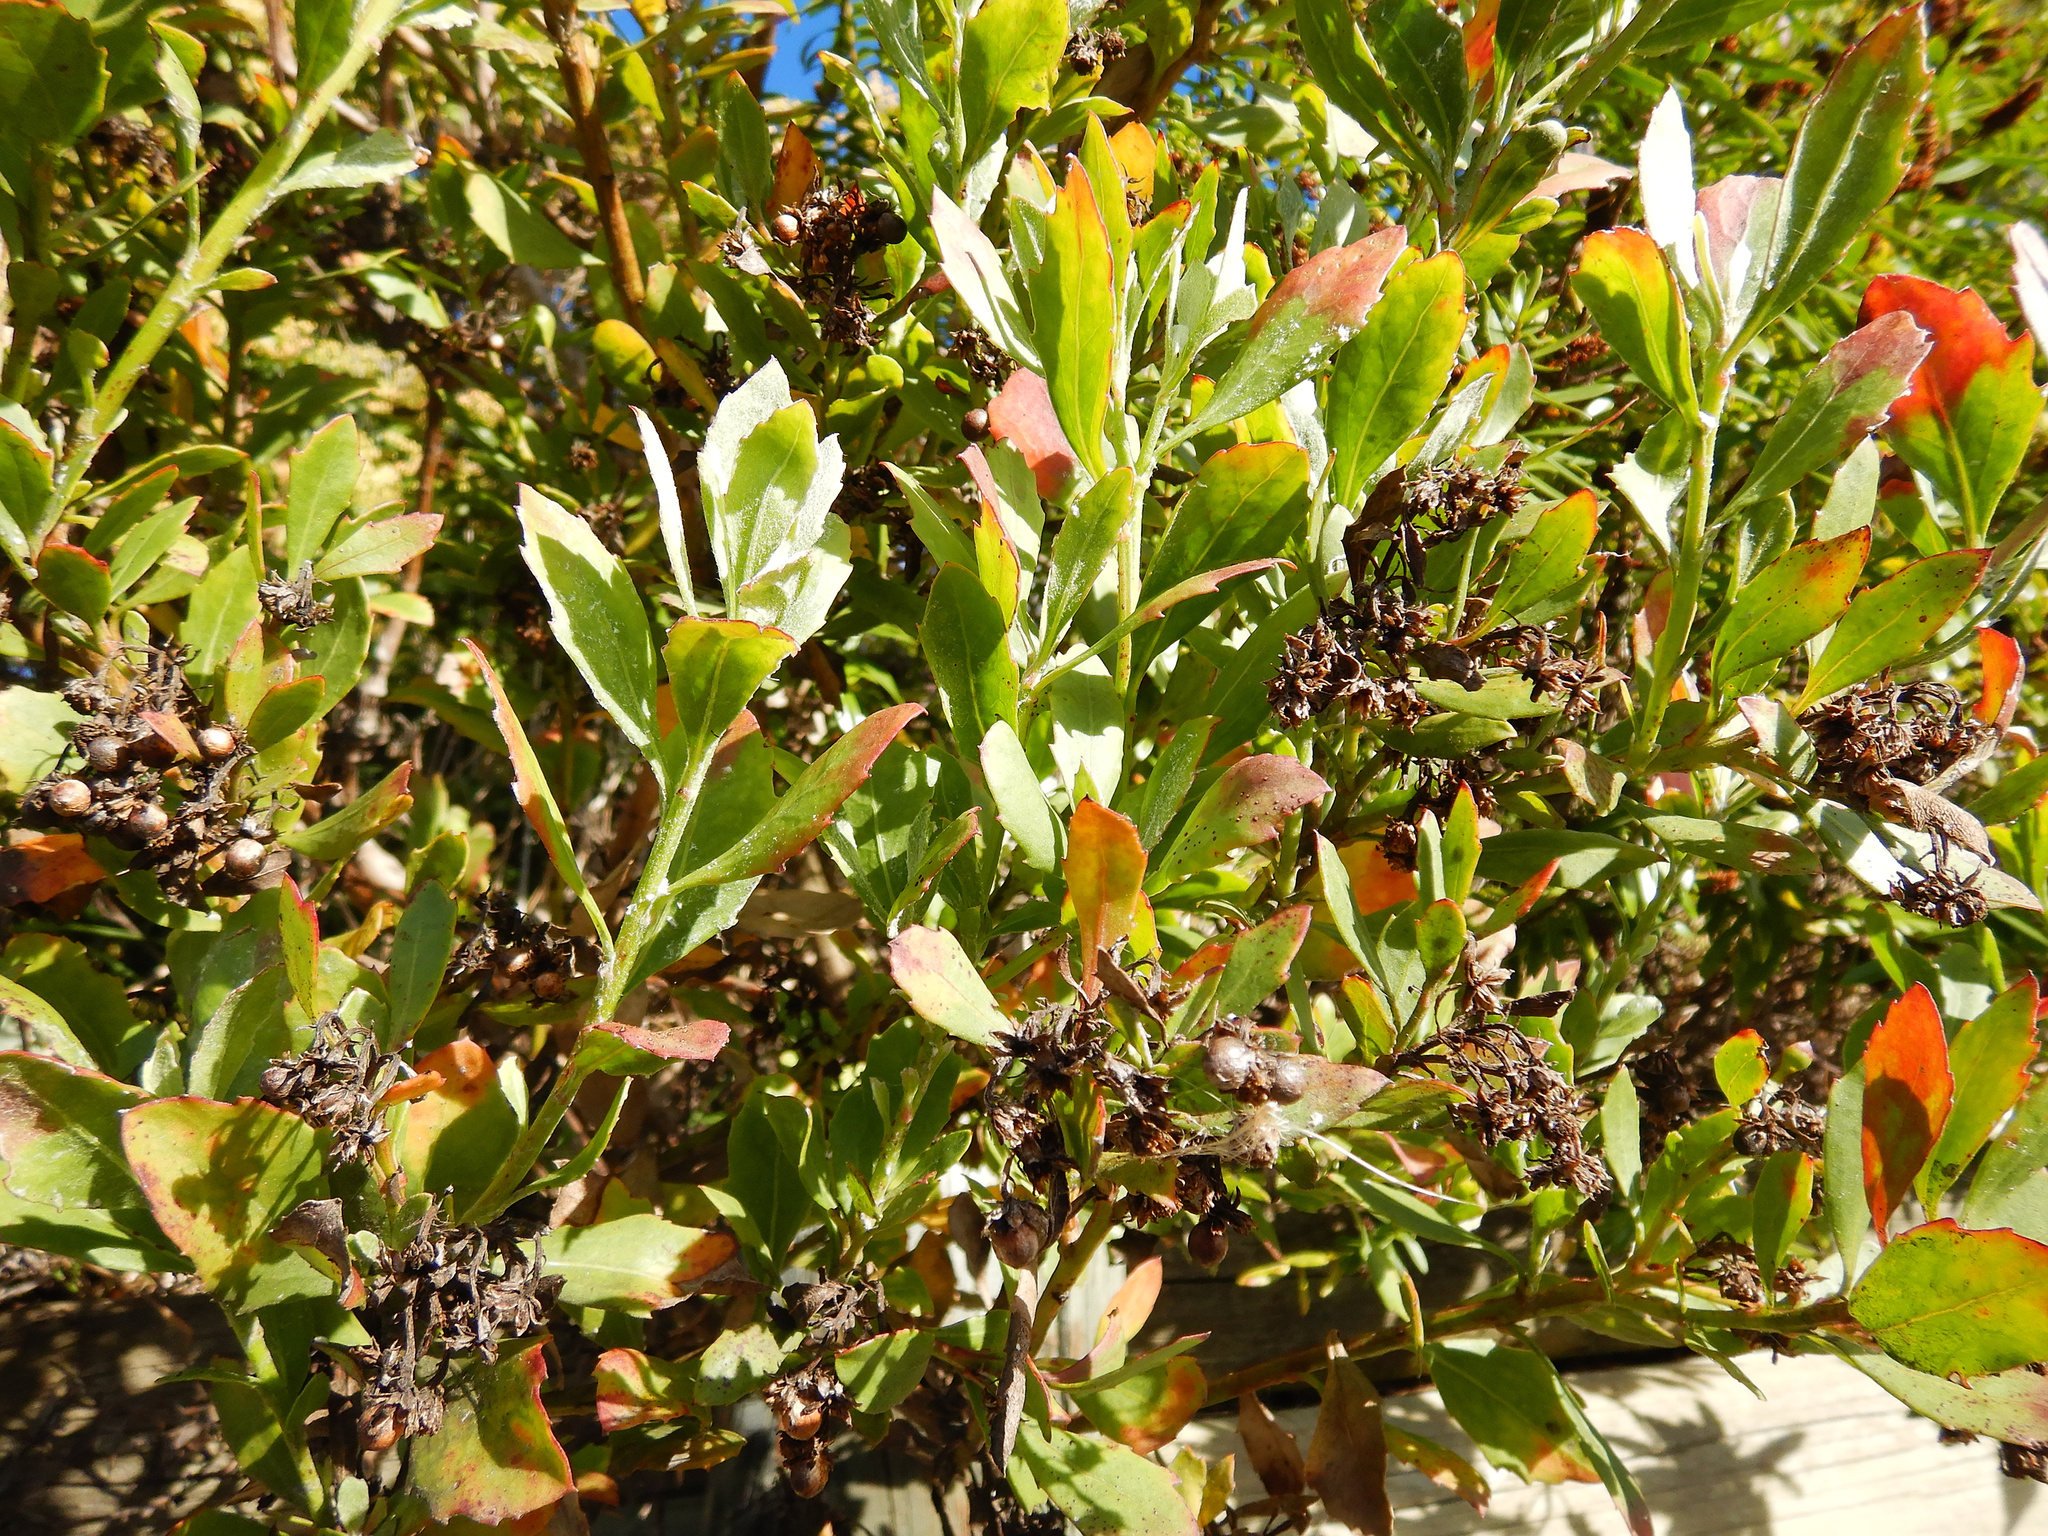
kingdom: Plantae
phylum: Tracheophyta
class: Magnoliopsida
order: Asterales
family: Asteraceae
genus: Osteospermum
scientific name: Osteospermum moniliferum
